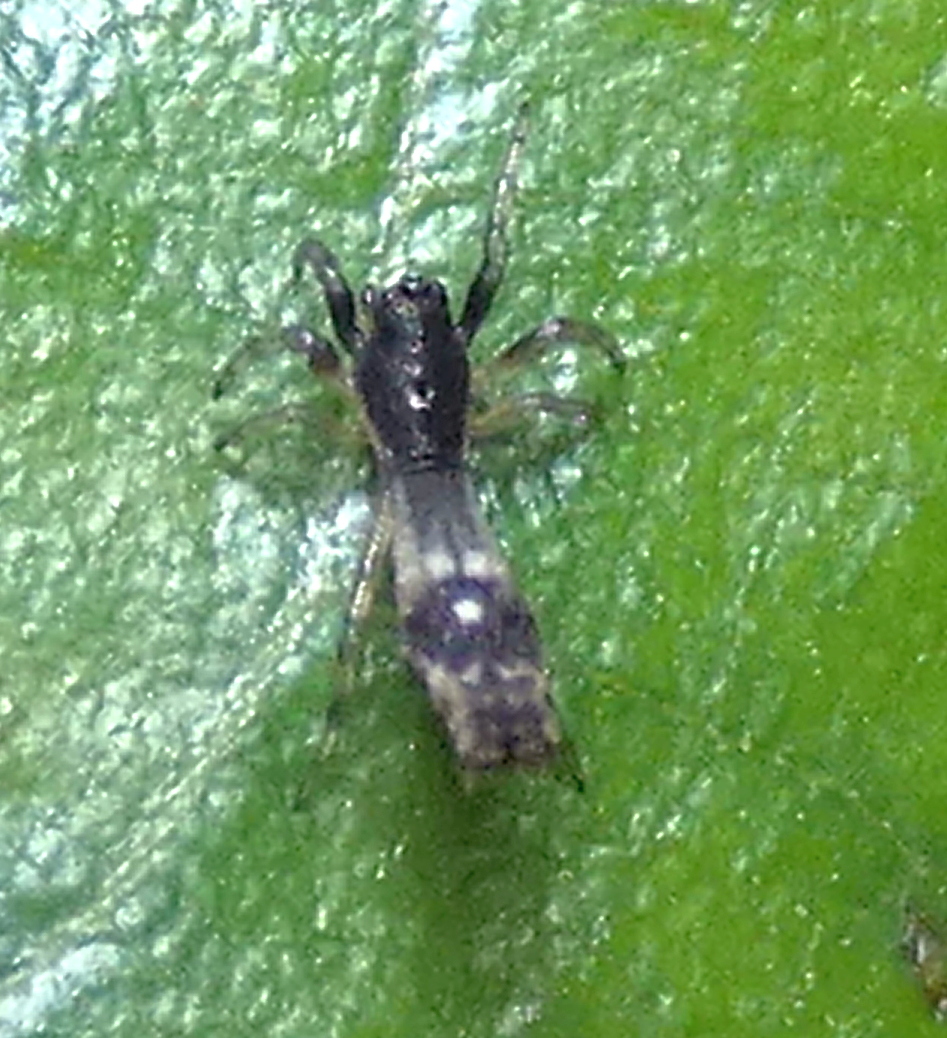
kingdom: Animalia
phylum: Arthropoda
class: Arachnida
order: Araneae
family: Araneidae
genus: Micrathena
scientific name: Micrathena horrida
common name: Orb weavers
